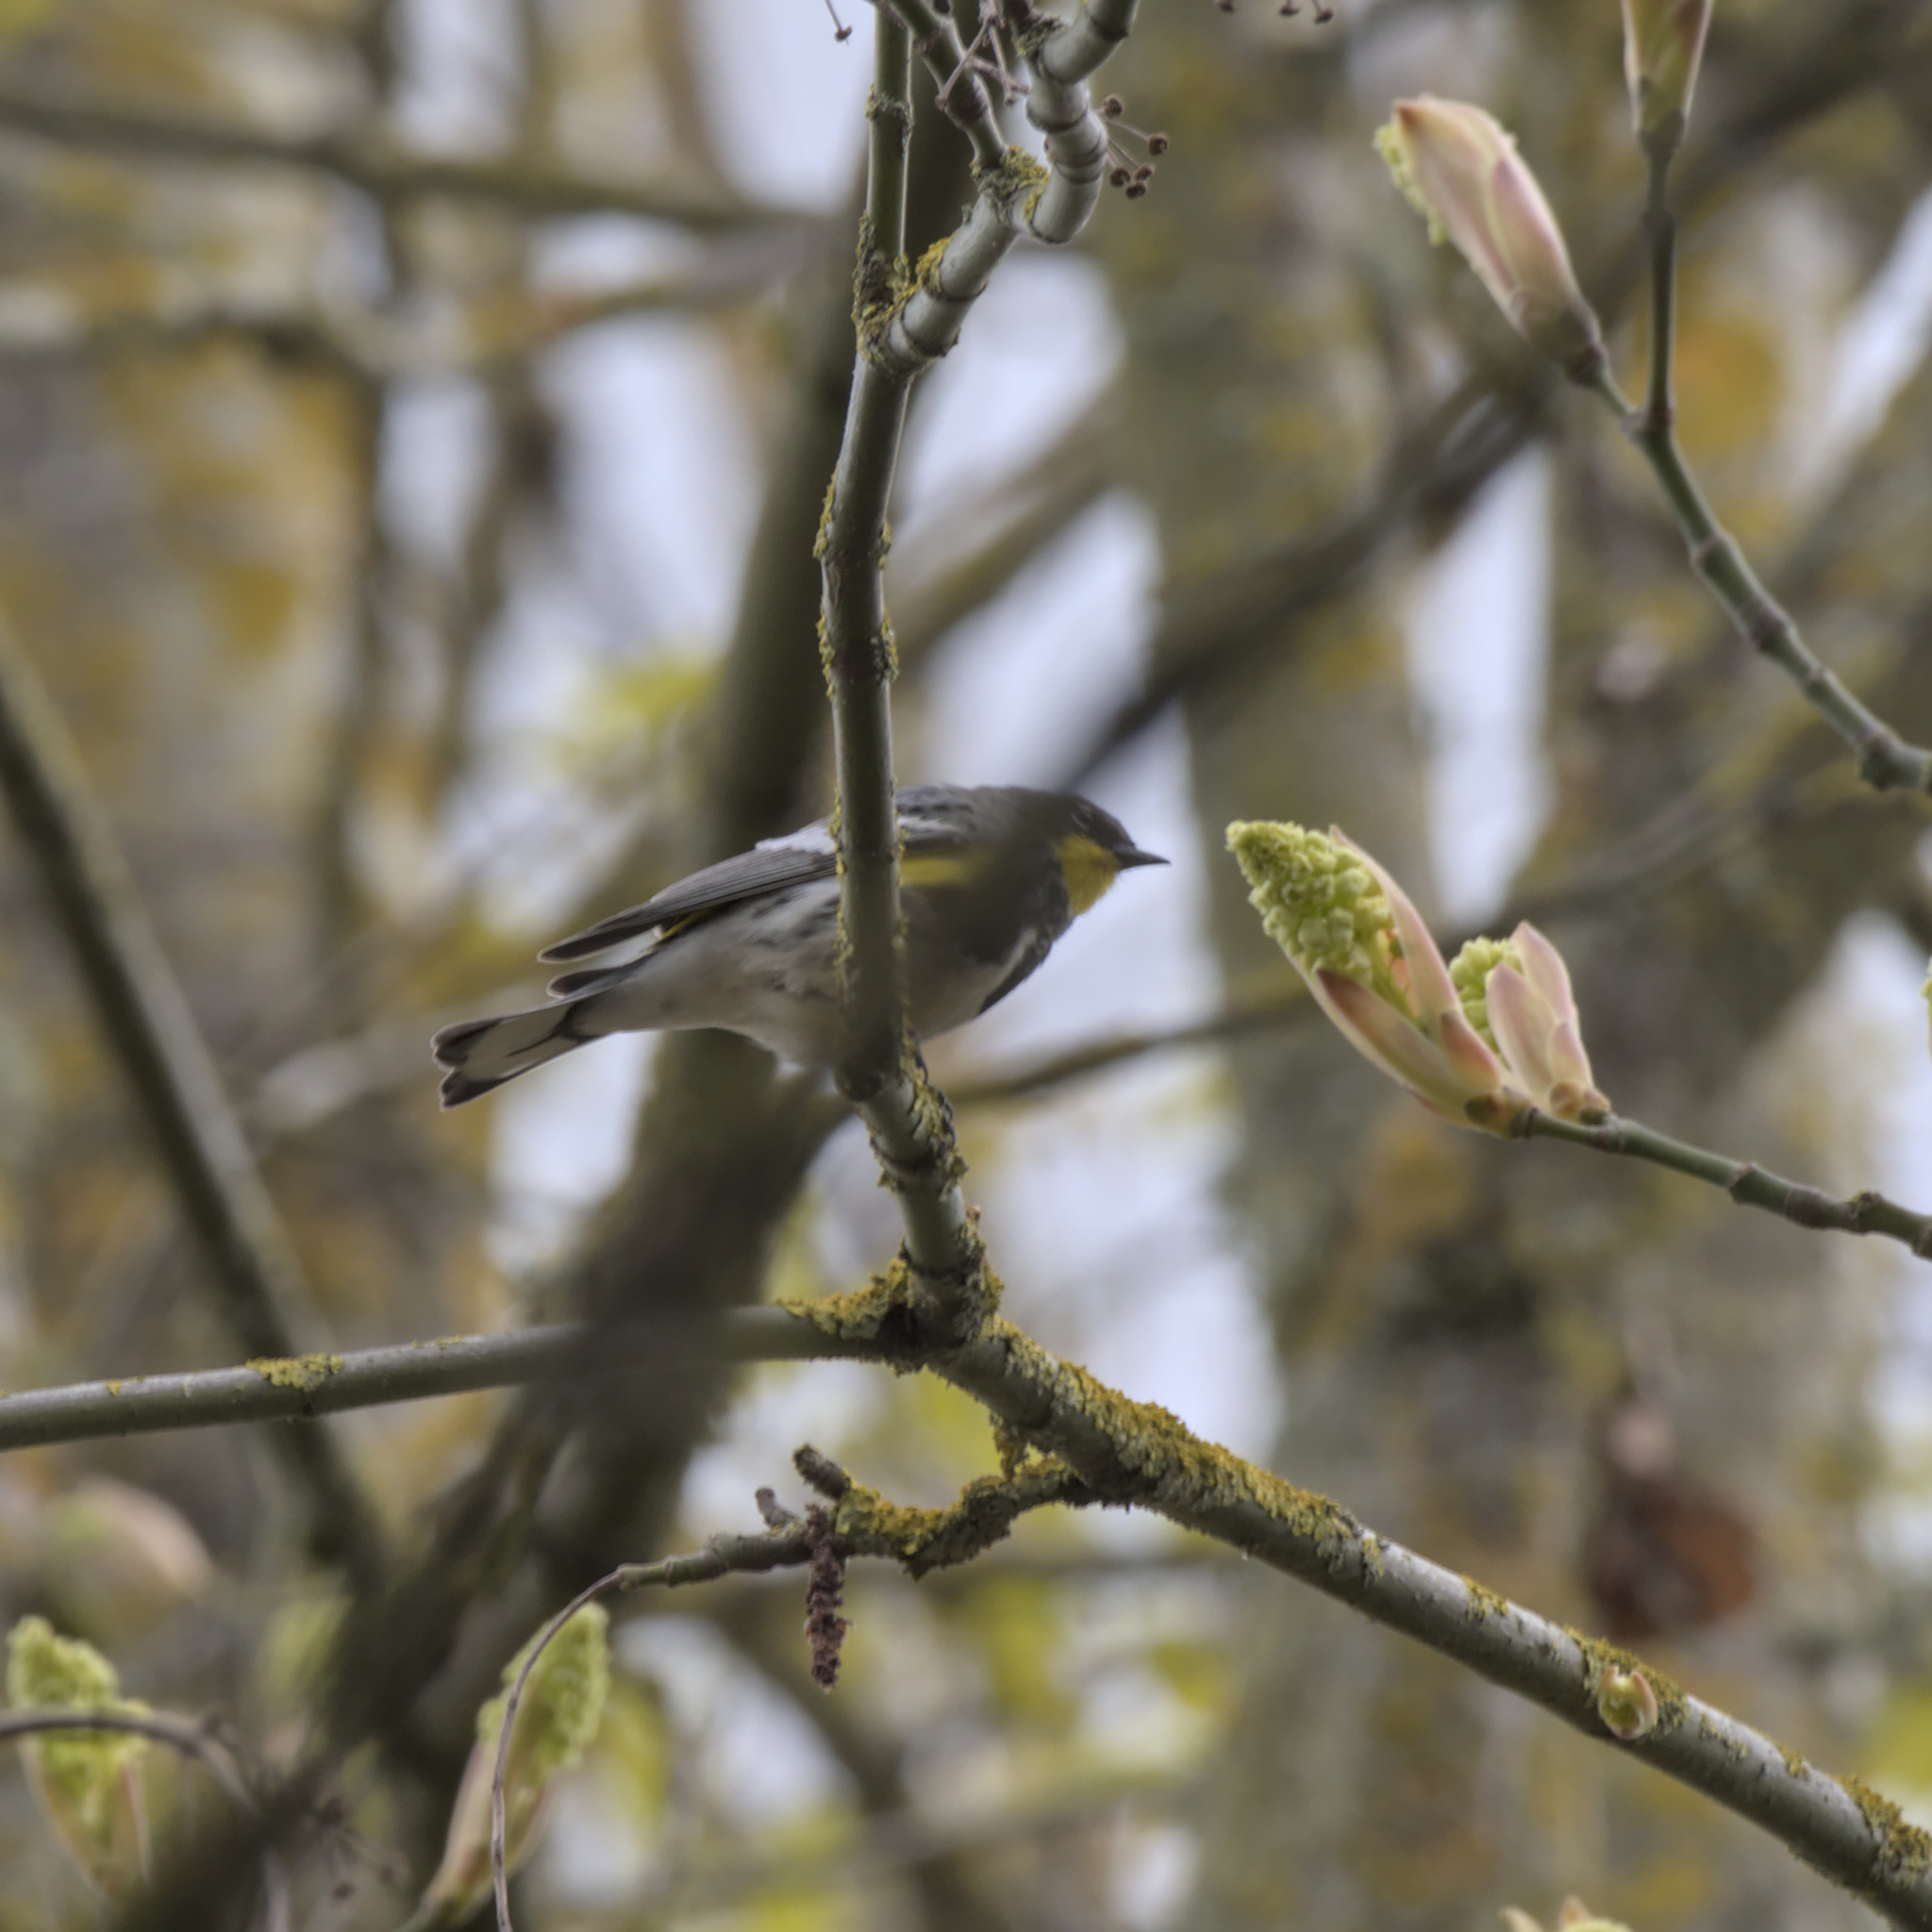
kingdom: Animalia
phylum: Chordata
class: Aves
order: Passeriformes
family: Parulidae
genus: Setophaga
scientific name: Setophaga auduboni
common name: Audubon's warbler
